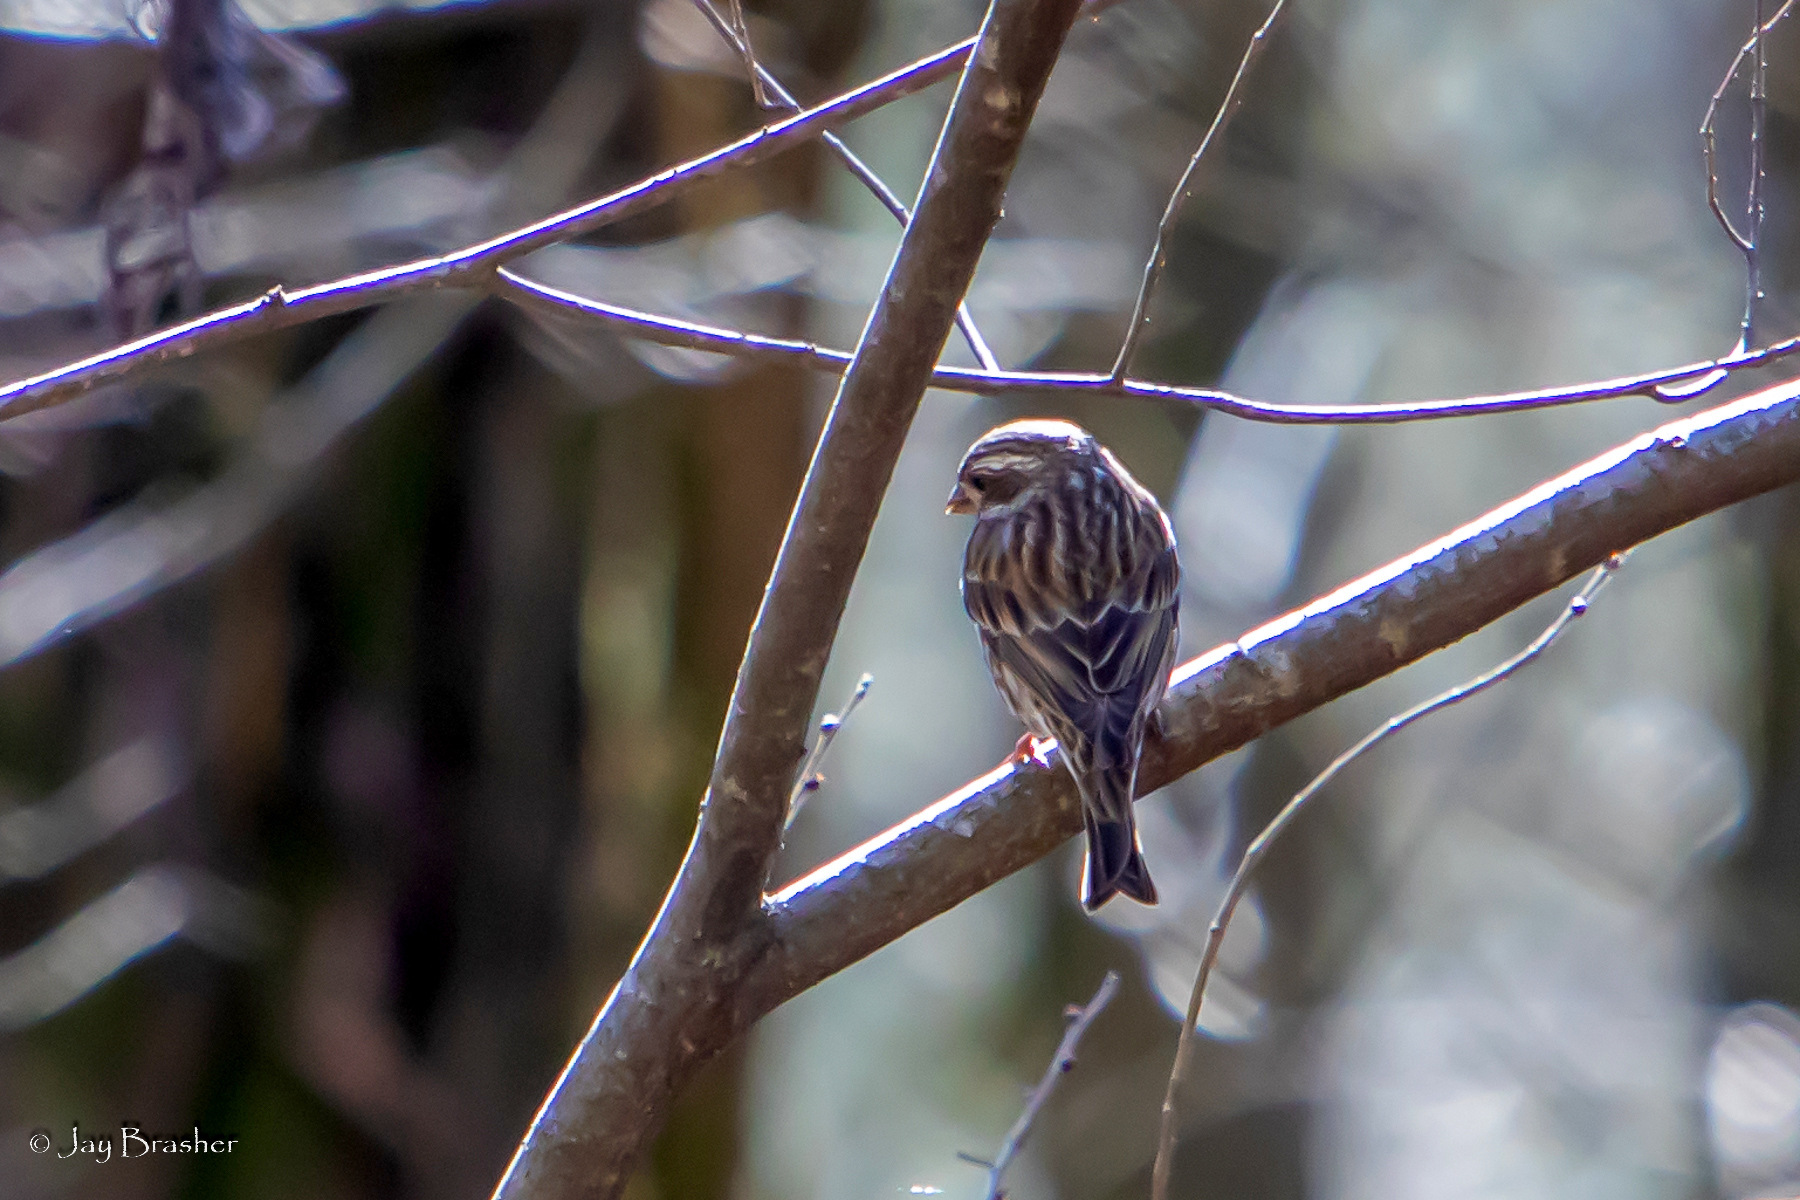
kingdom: Animalia
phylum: Chordata
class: Aves
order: Passeriformes
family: Fringillidae
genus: Haemorhous
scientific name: Haemorhous purpureus
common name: Purple finch
